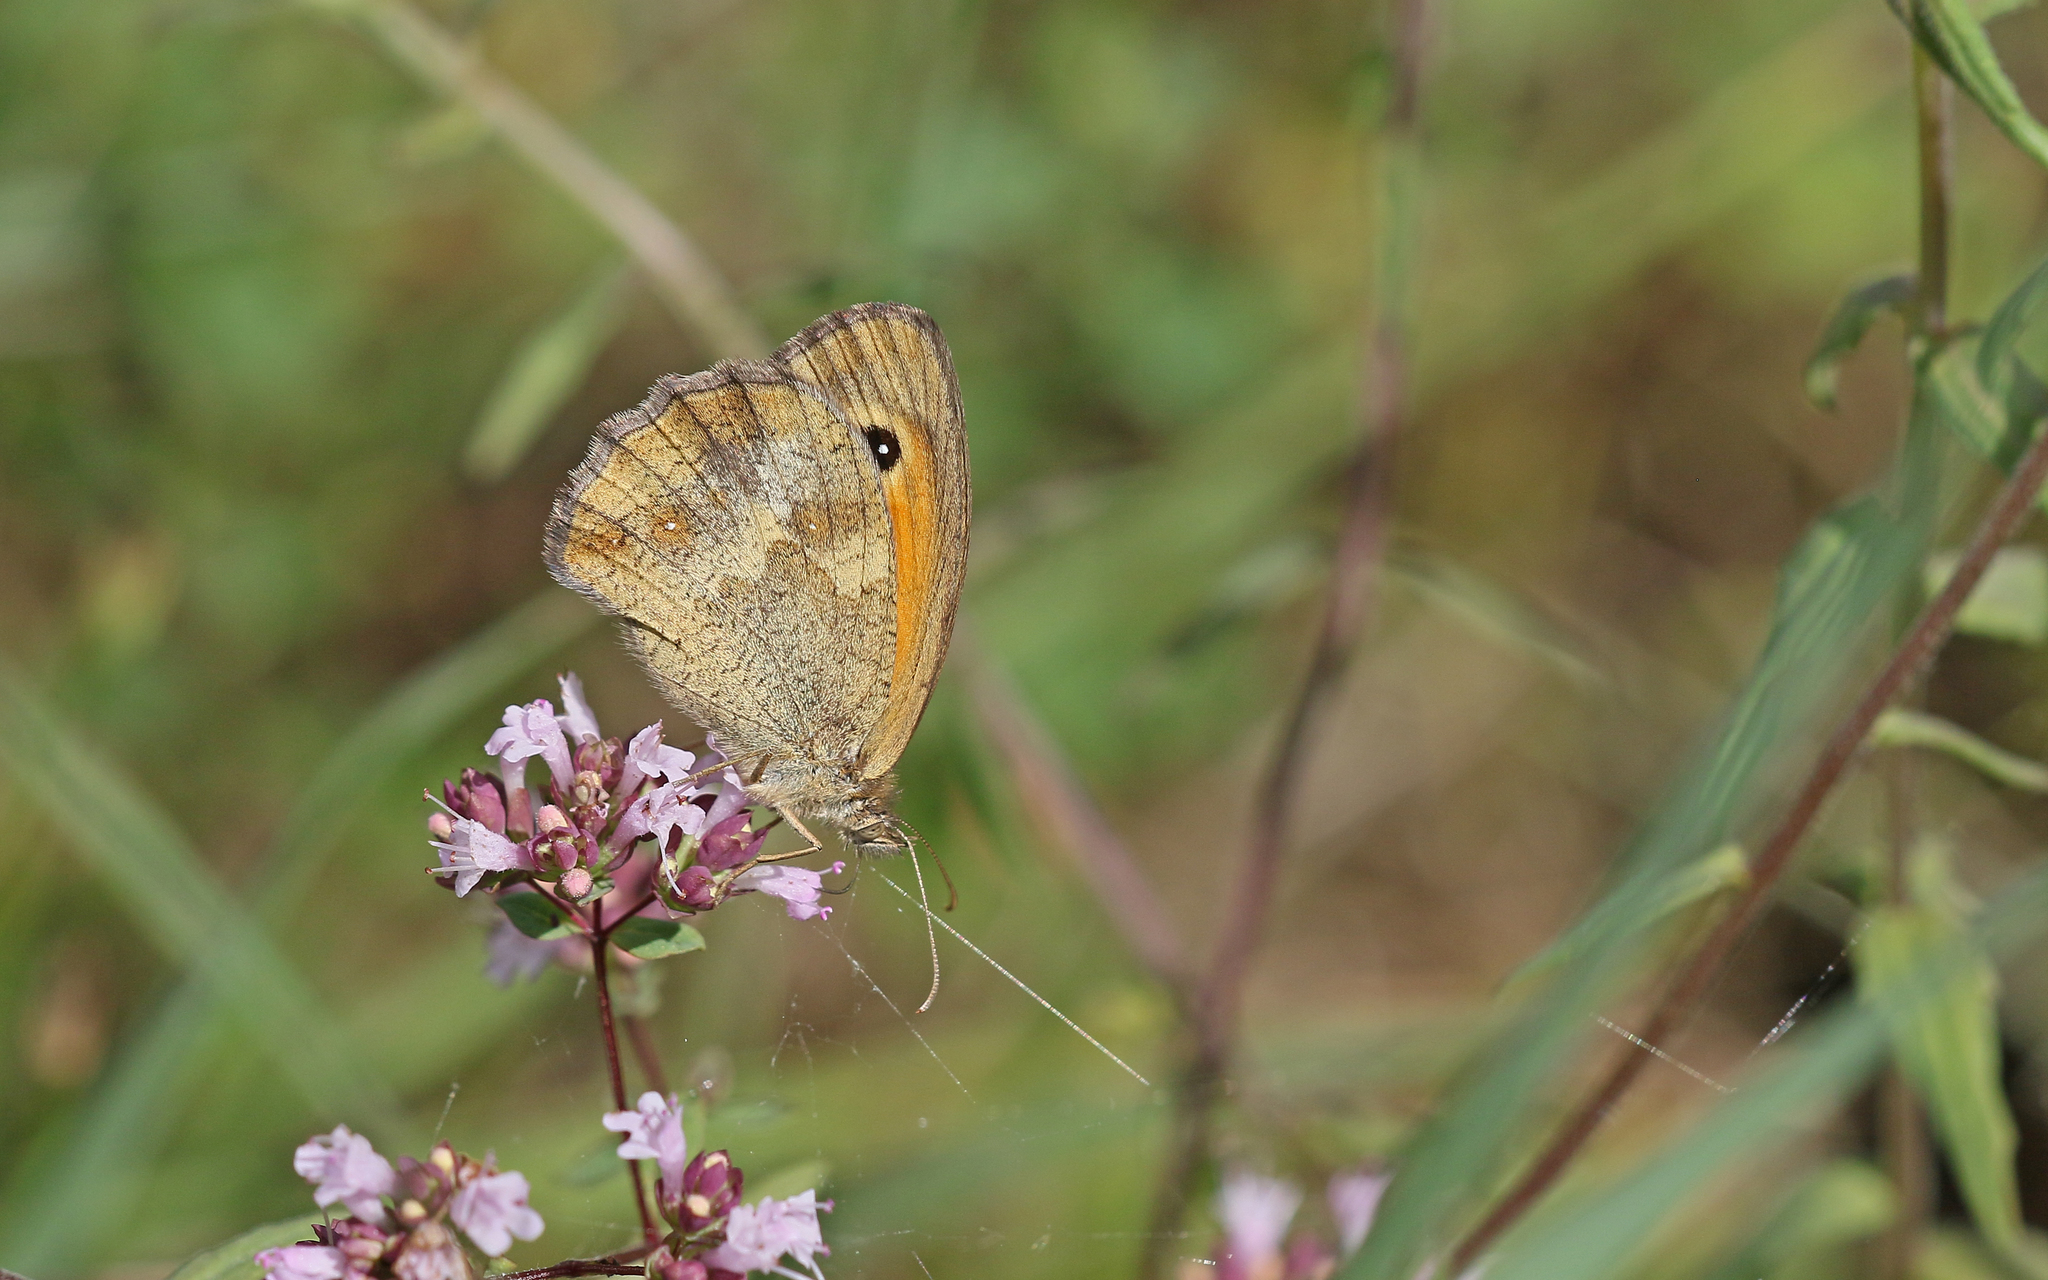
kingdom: Animalia
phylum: Arthropoda
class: Insecta
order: Lepidoptera
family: Nymphalidae
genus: Pyronia
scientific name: Pyronia tithonus
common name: Gatekeeper
